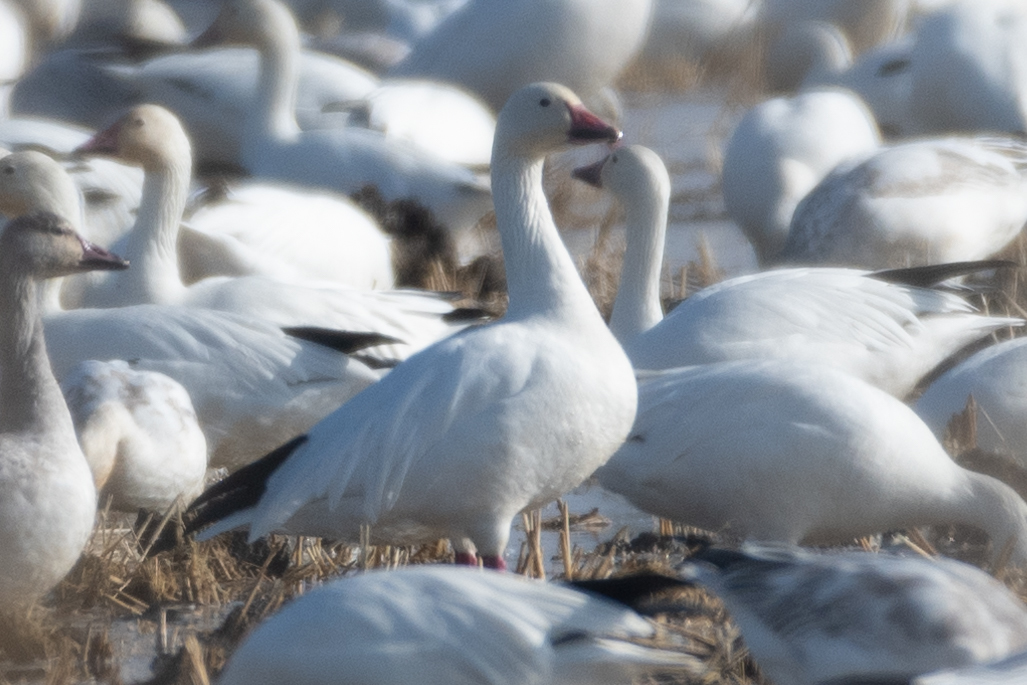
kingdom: Animalia
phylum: Chordata
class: Aves
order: Anseriformes
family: Anatidae
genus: Anser
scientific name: Anser caerulescens
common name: Snow goose
